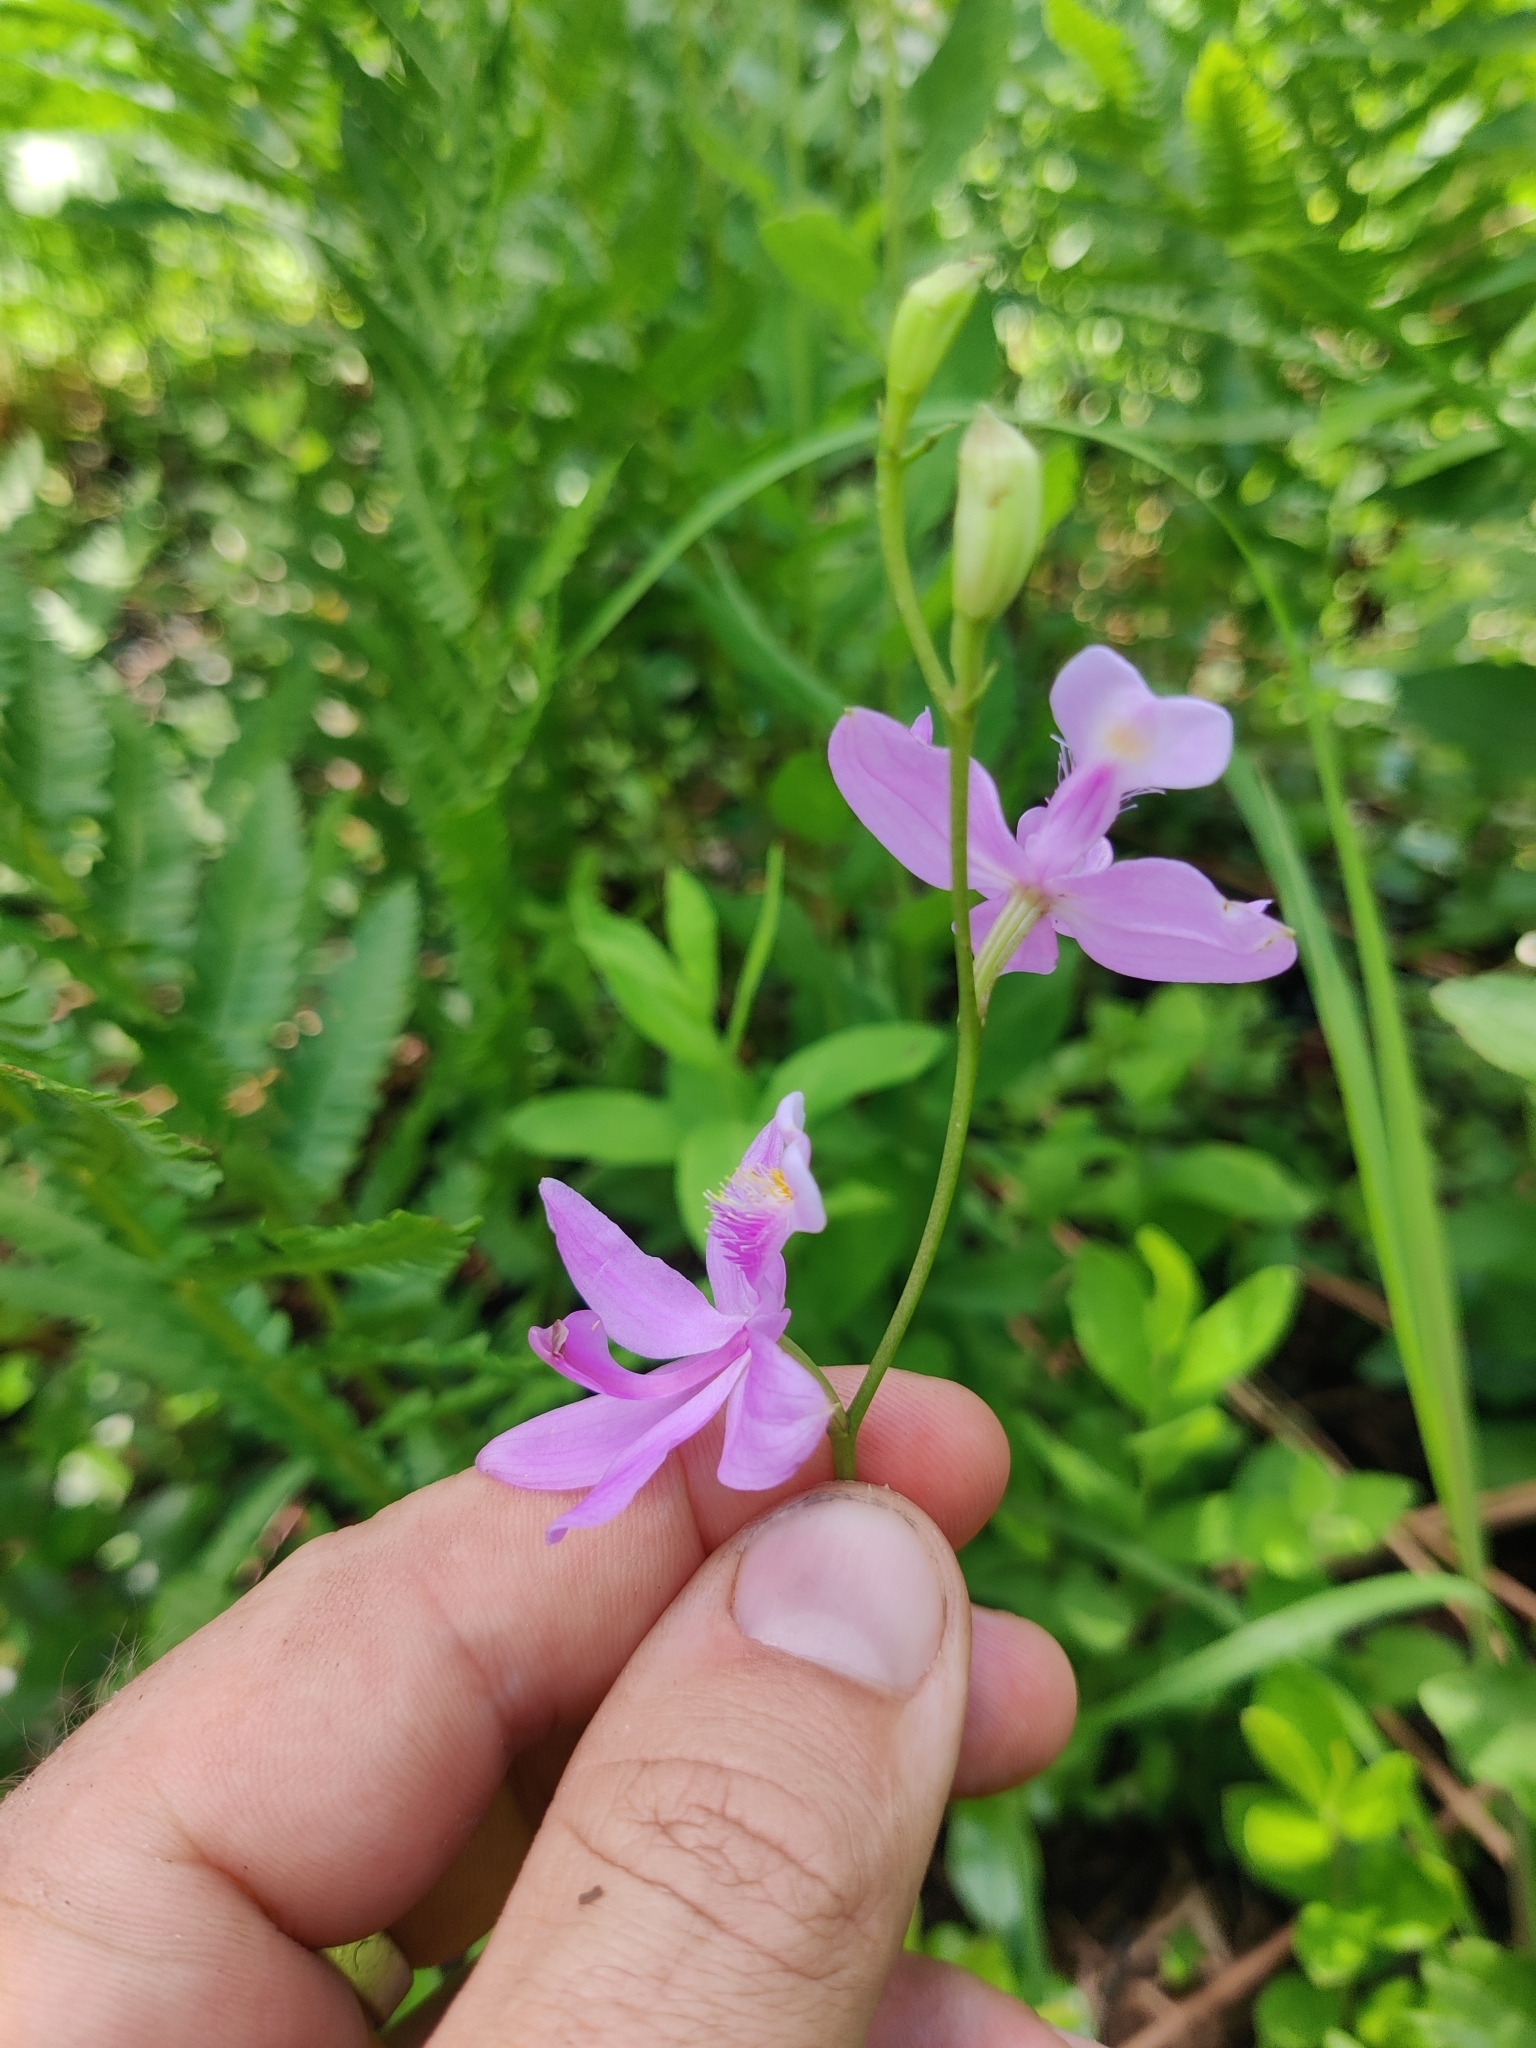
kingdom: Plantae
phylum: Tracheophyta
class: Liliopsida
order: Asparagales
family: Orchidaceae
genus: Calopogon
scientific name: Calopogon tuberosus
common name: Grass-pink
